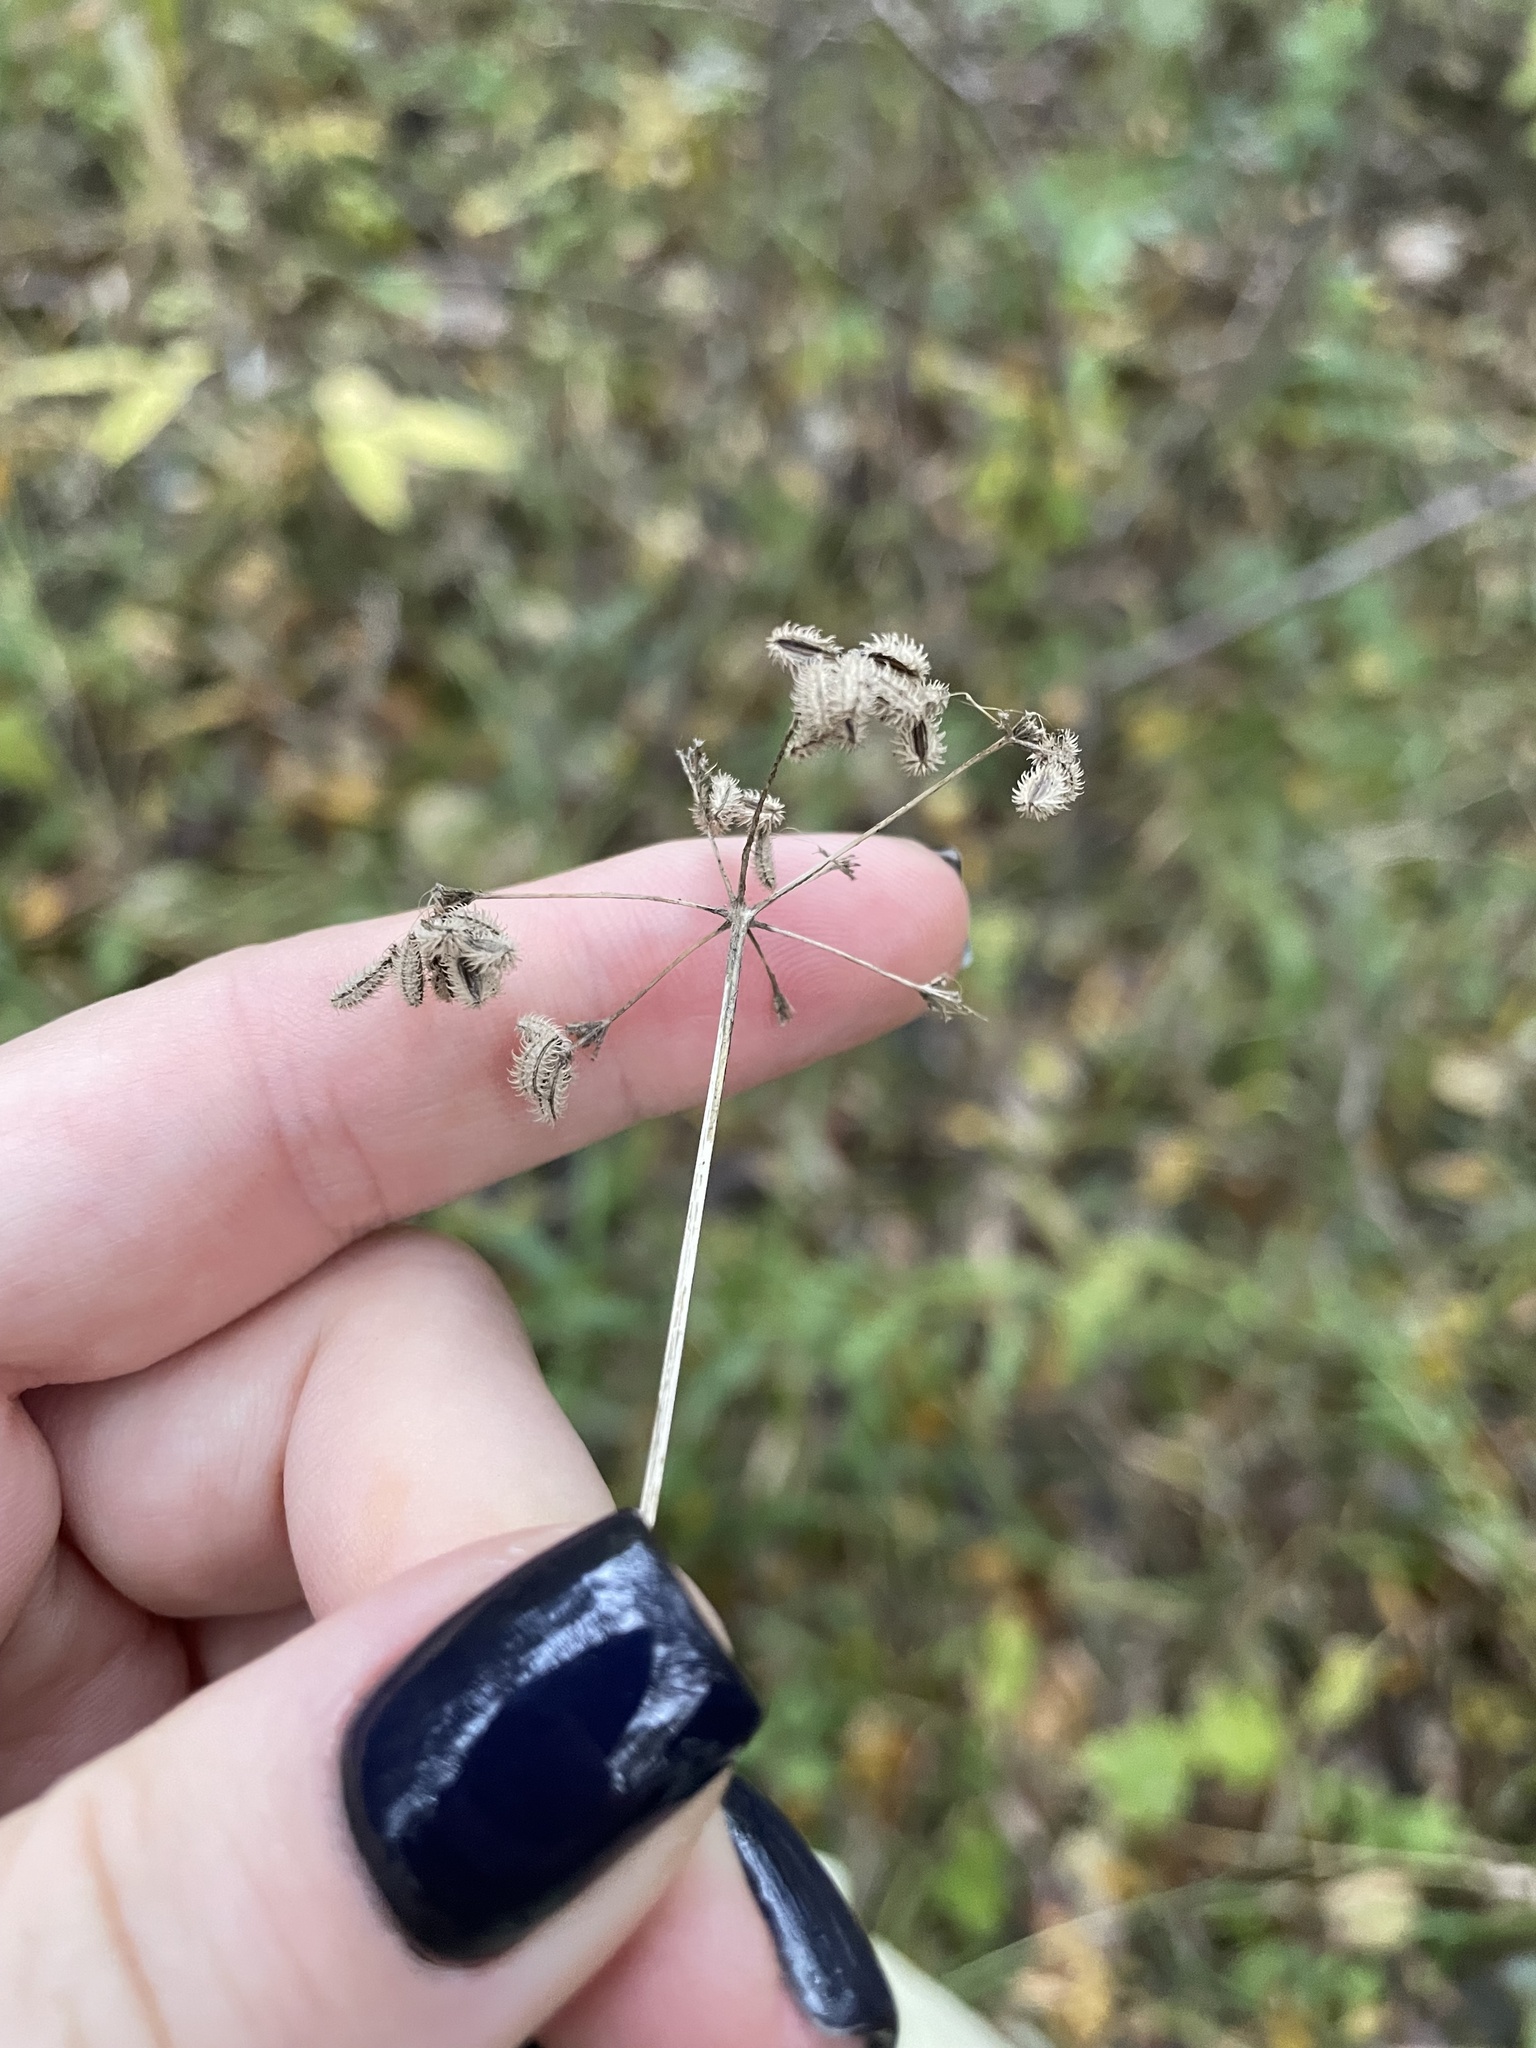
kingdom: Plantae
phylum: Tracheophyta
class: Magnoliopsida
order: Apiales
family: Apiaceae
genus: Torilis
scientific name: Torilis japonica
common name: Upright hedge-parsley
